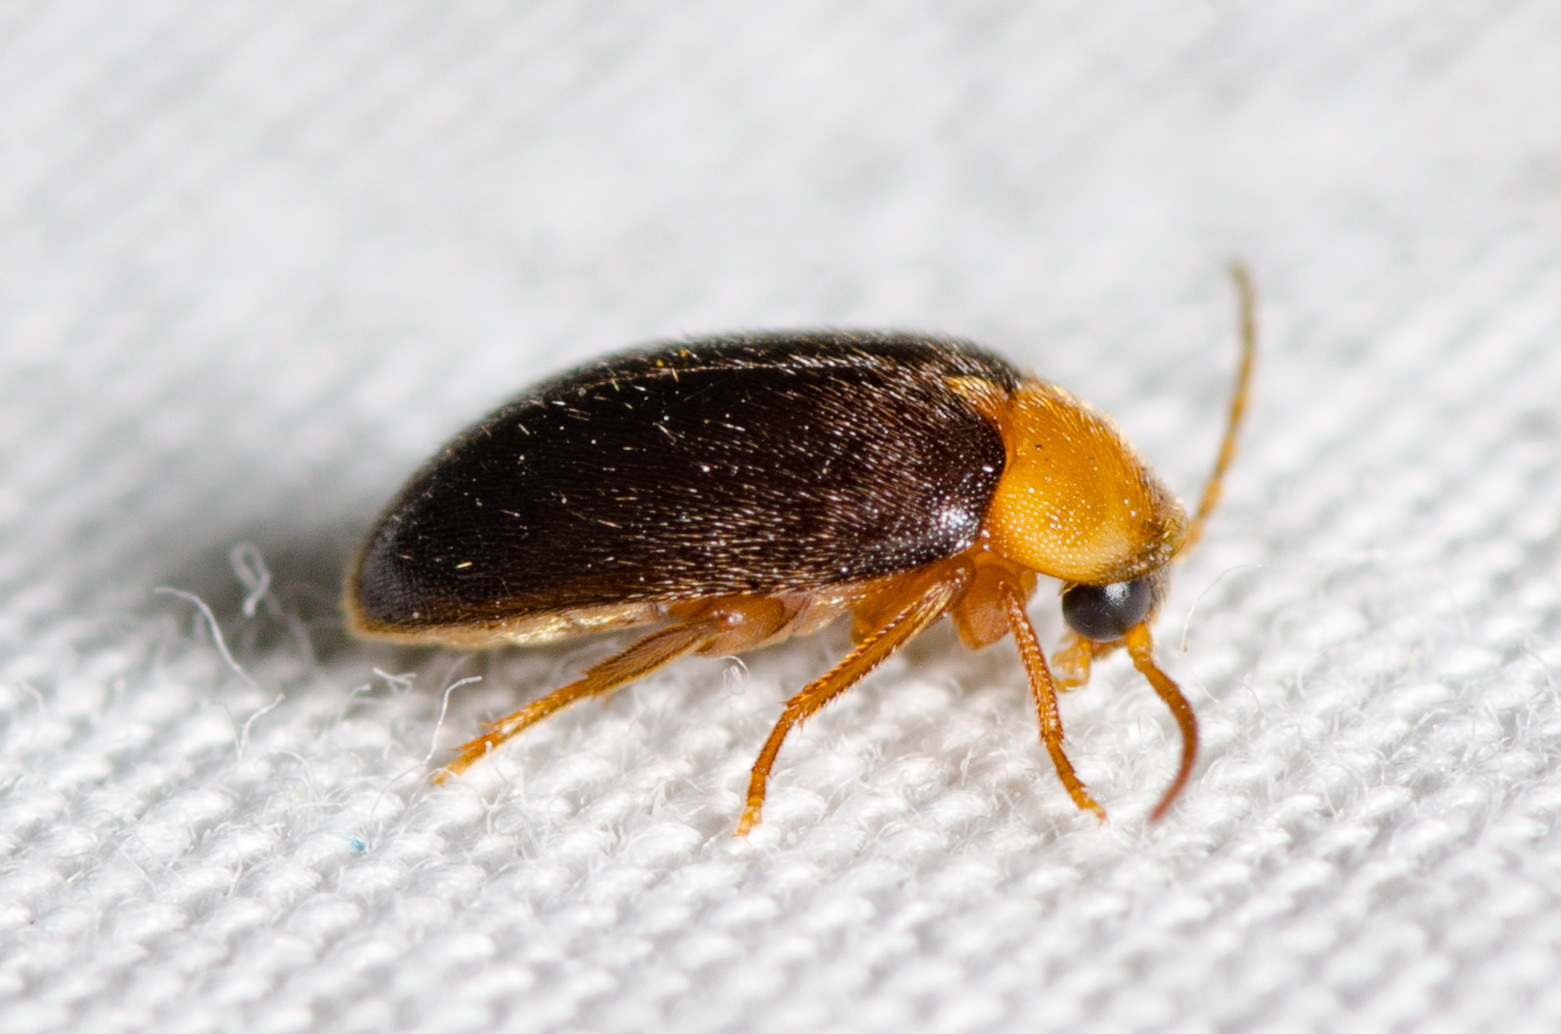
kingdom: Animalia
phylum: Arthropoda
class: Insecta
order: Coleoptera
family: Scirtidae
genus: Sacodes
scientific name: Sacodes pulchella
